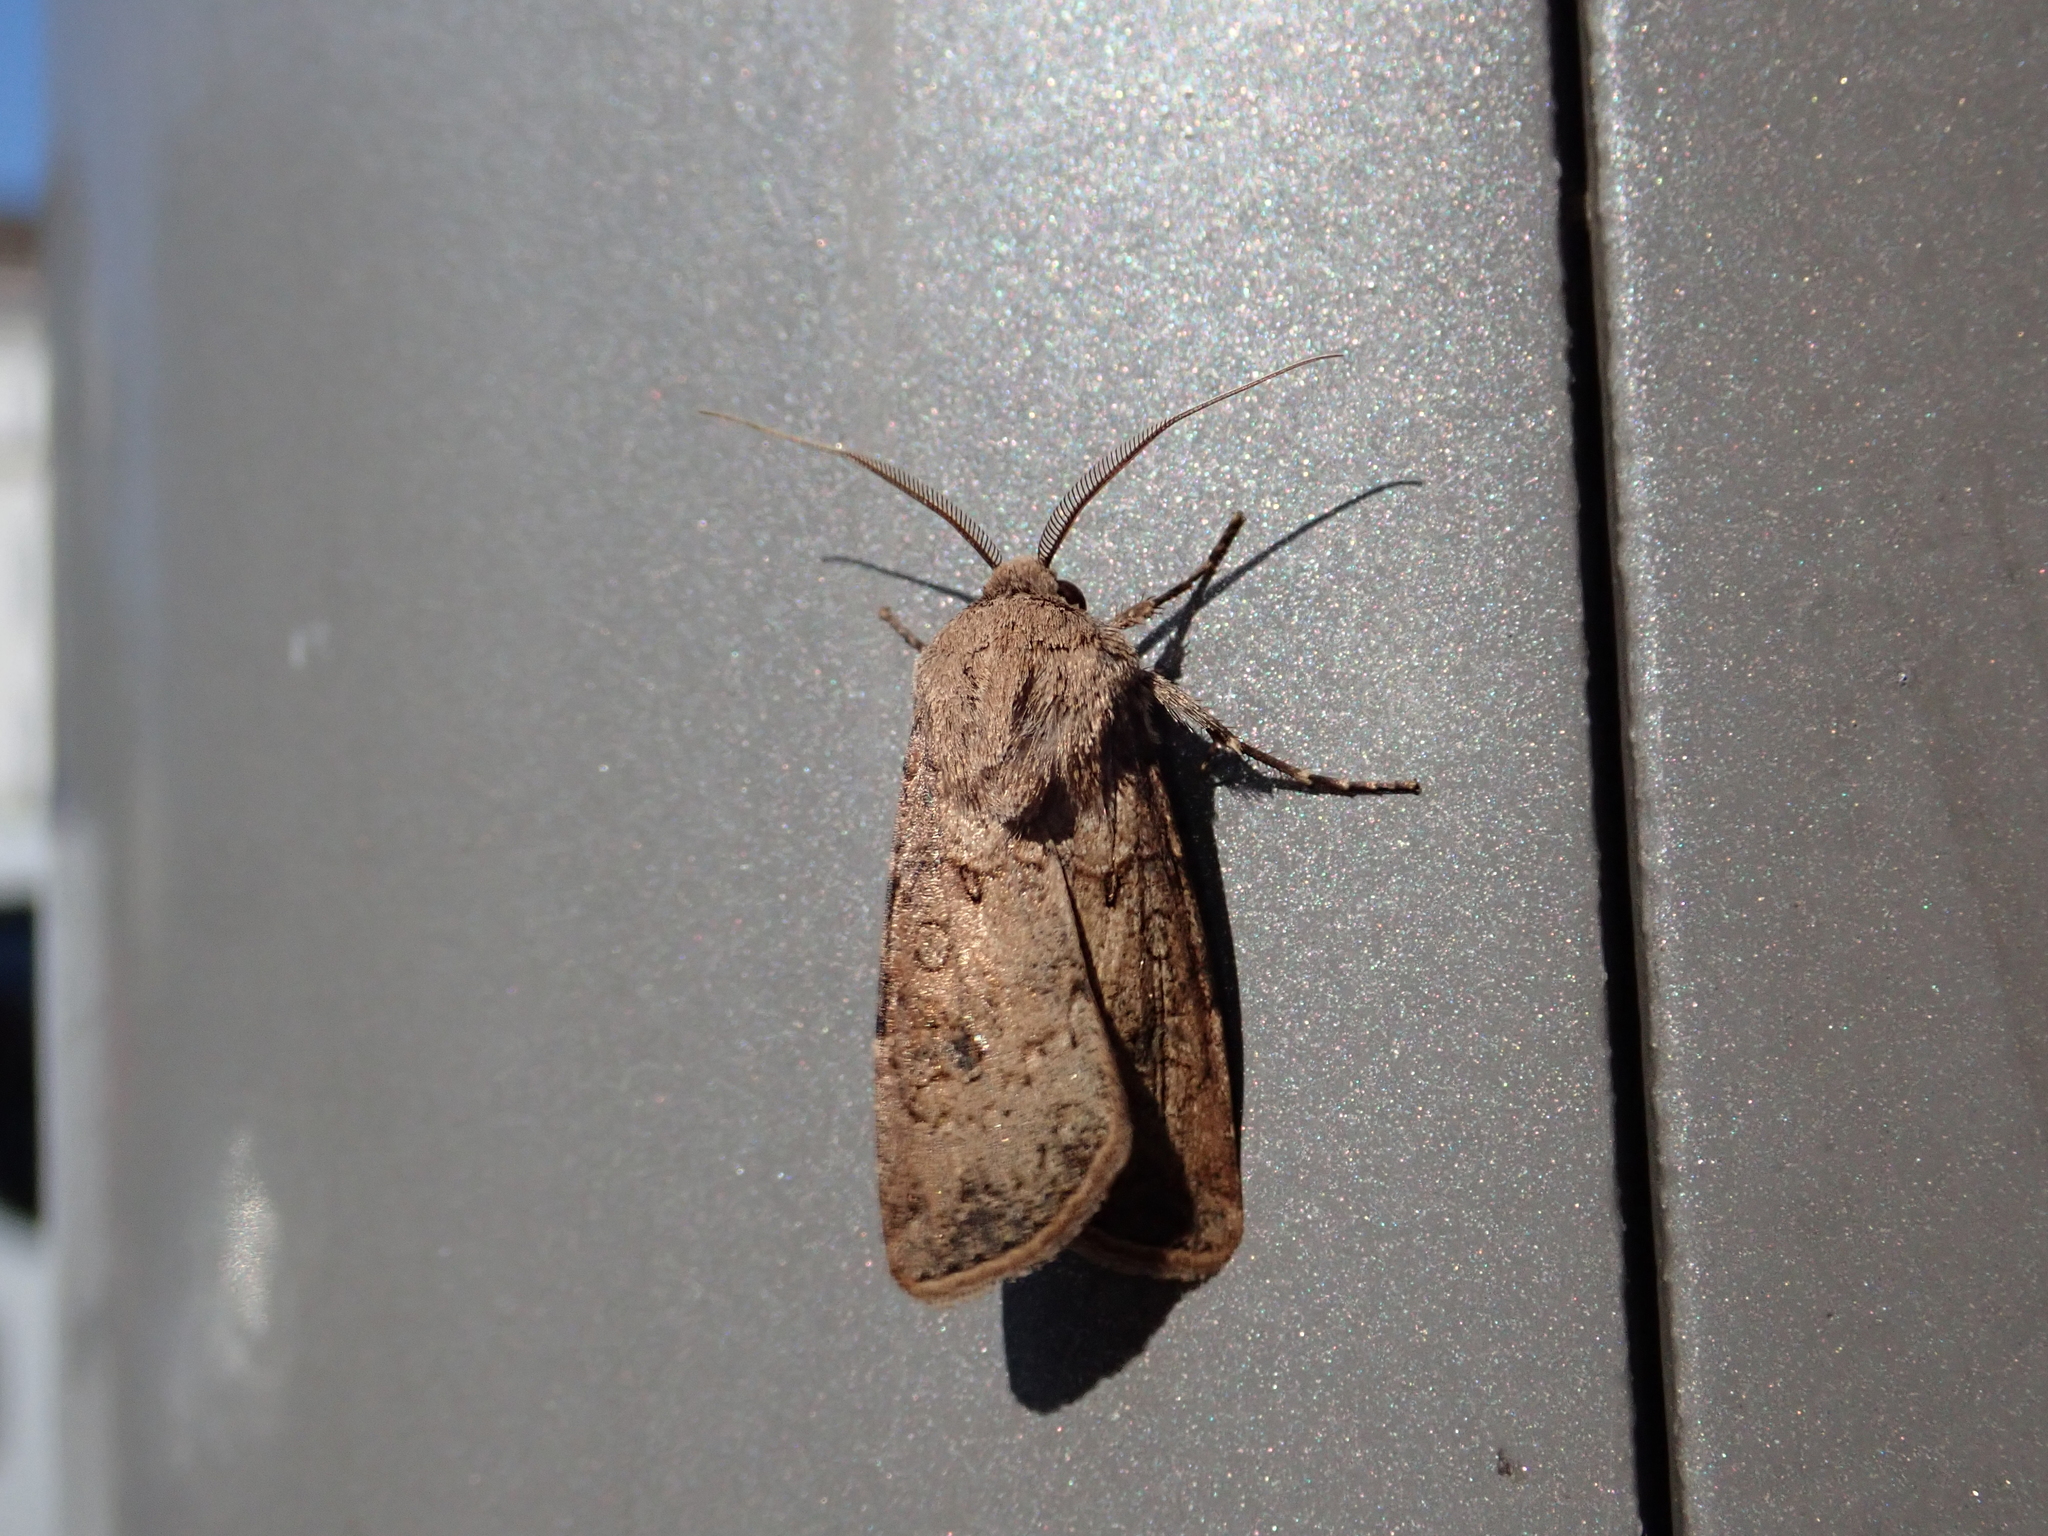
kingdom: Animalia
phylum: Arthropoda
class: Insecta
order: Lepidoptera
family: Noctuidae
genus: Agrotis
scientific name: Agrotis segetum
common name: Turnip moth
